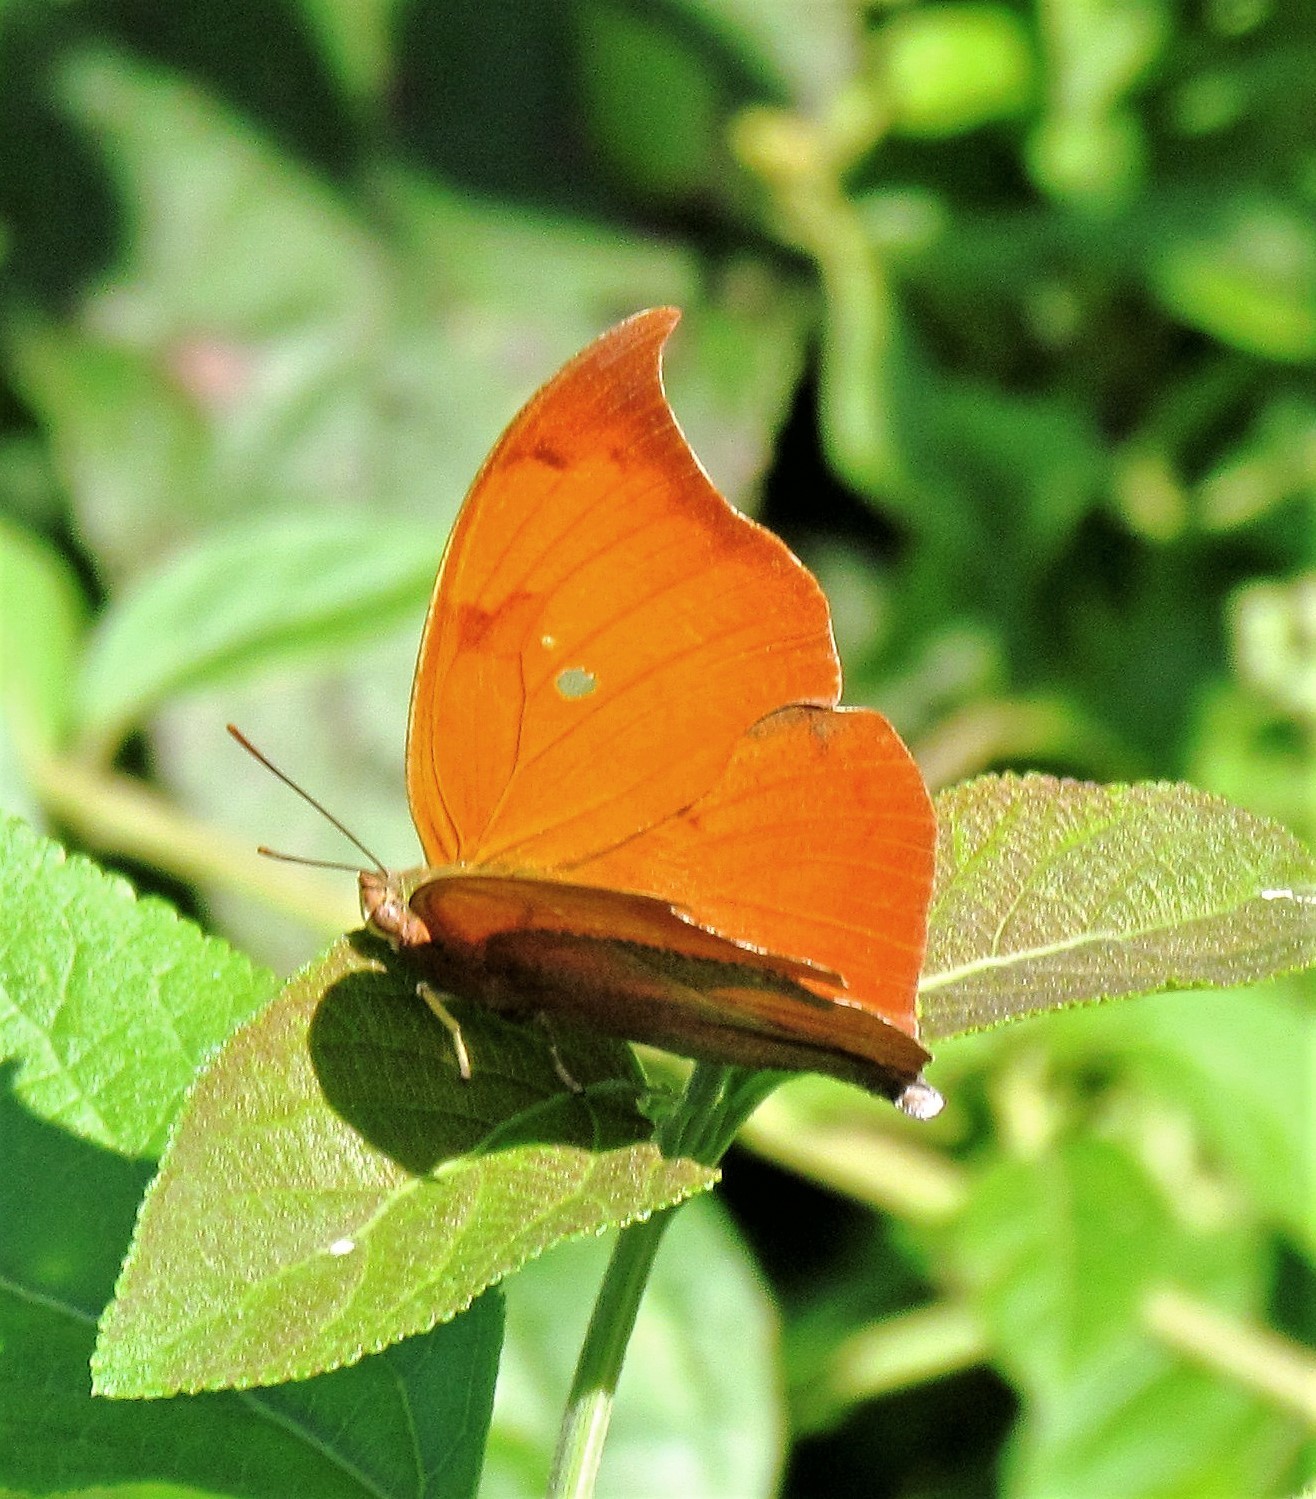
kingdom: Animalia
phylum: Arthropoda
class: Insecta
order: Lepidoptera
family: Nymphalidae
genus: Zaretis
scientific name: Zaretis strigosus
